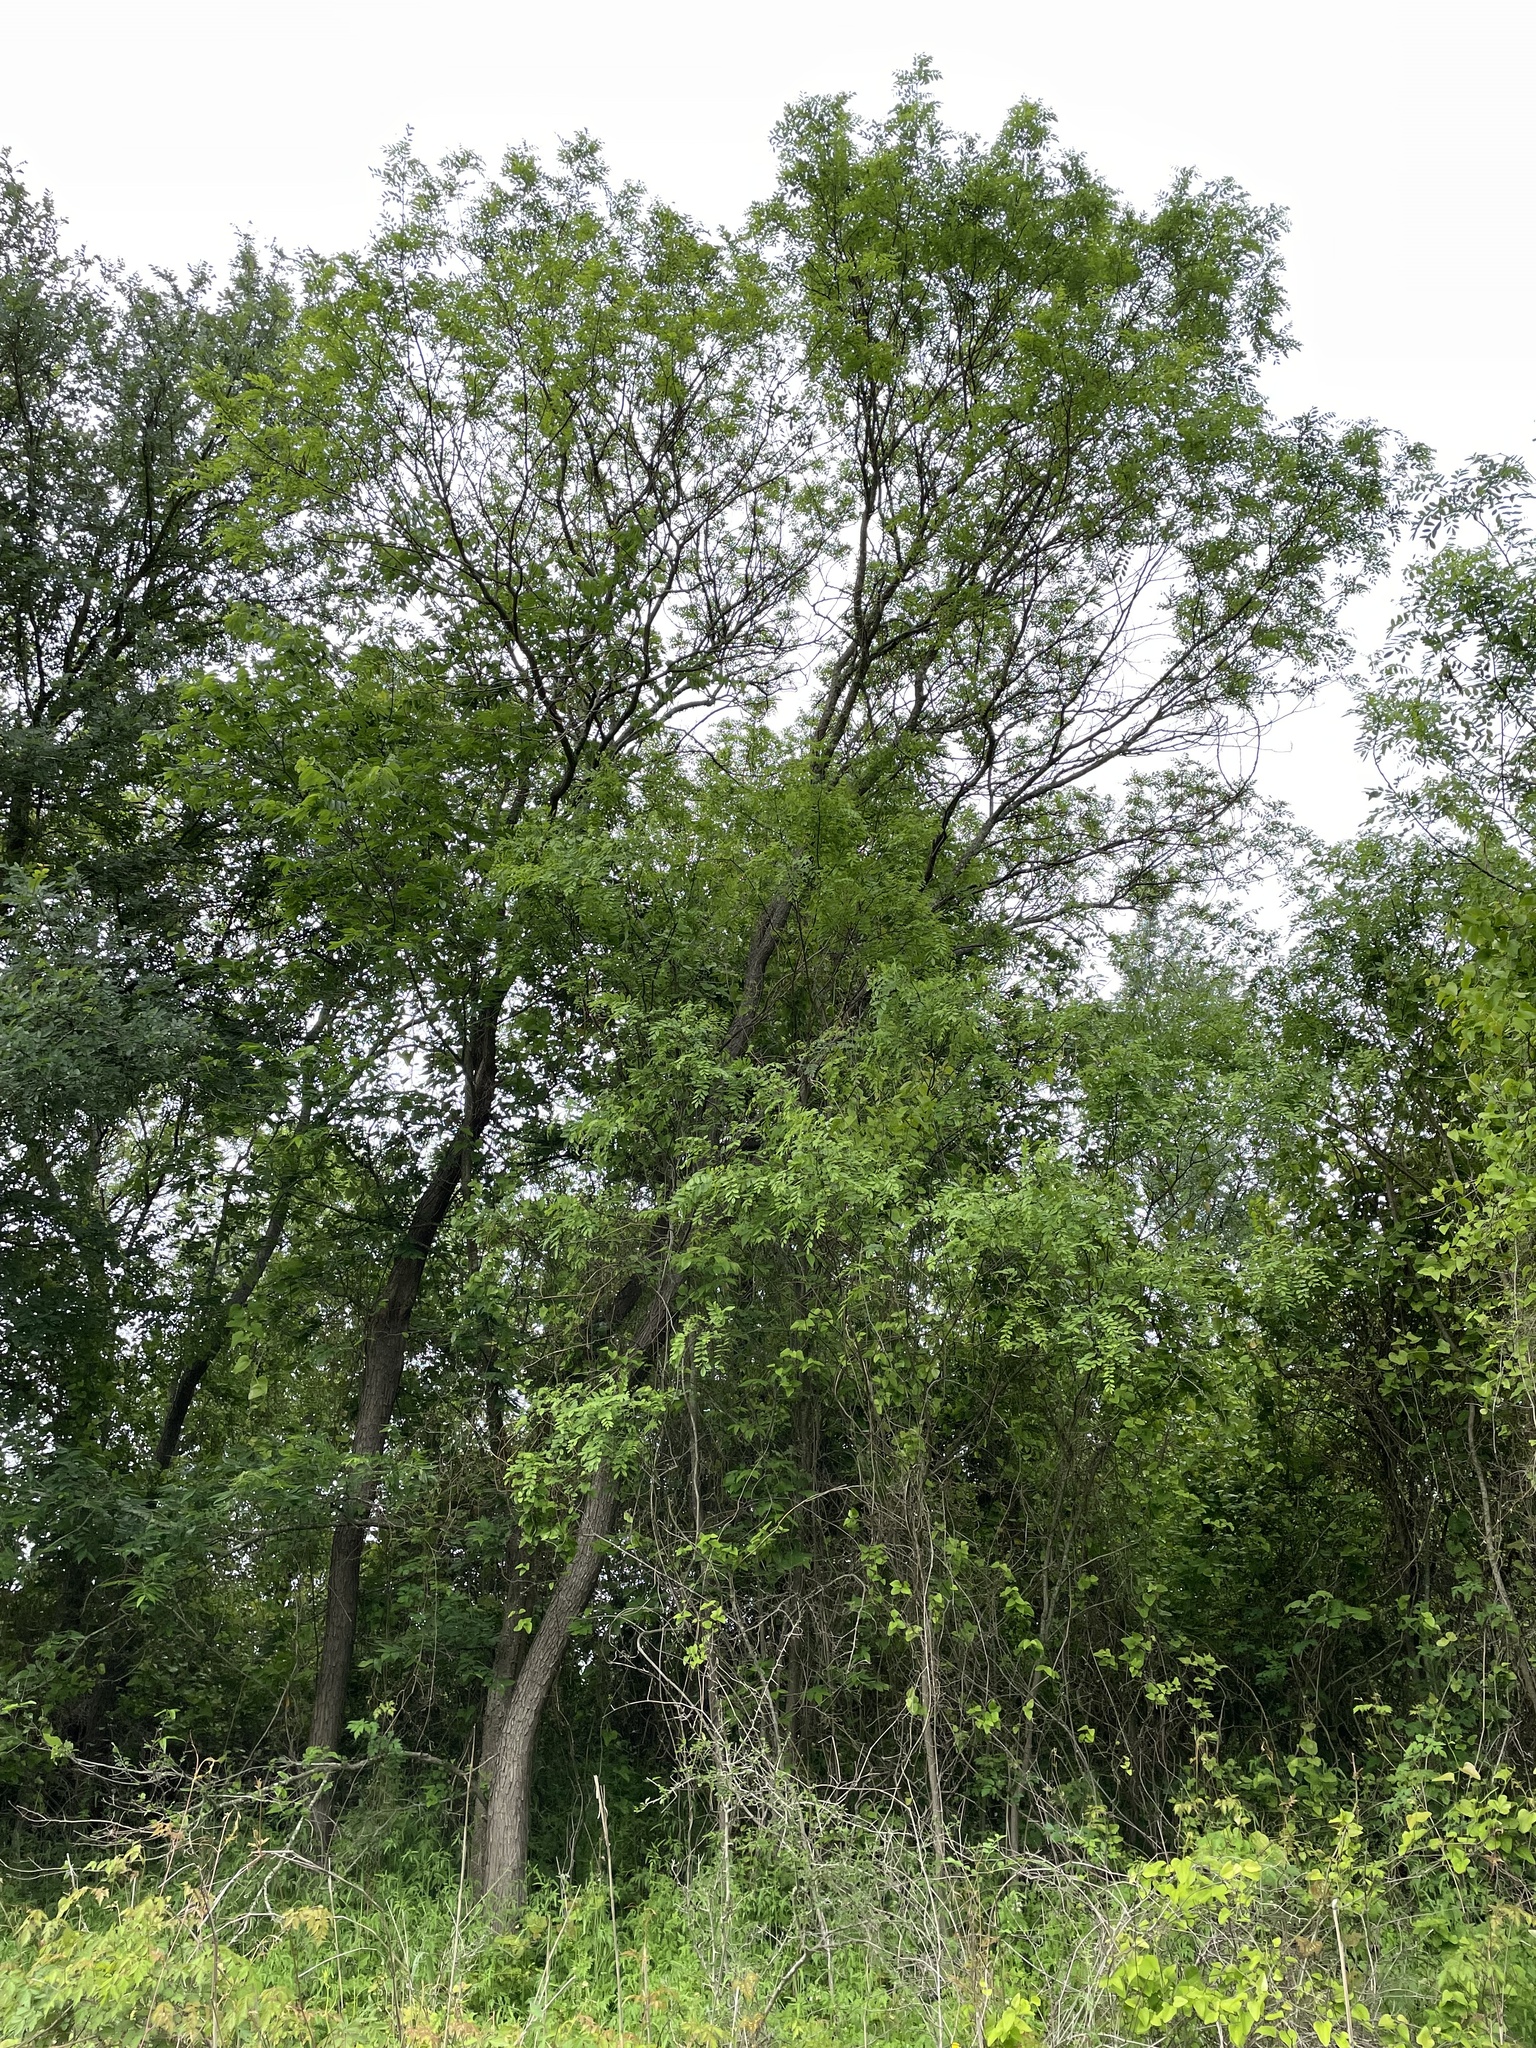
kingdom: Plantae
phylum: Tracheophyta
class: Magnoliopsida
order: Fabales
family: Fabaceae
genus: Styphnolobium
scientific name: Styphnolobium affine
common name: Texas sophora
